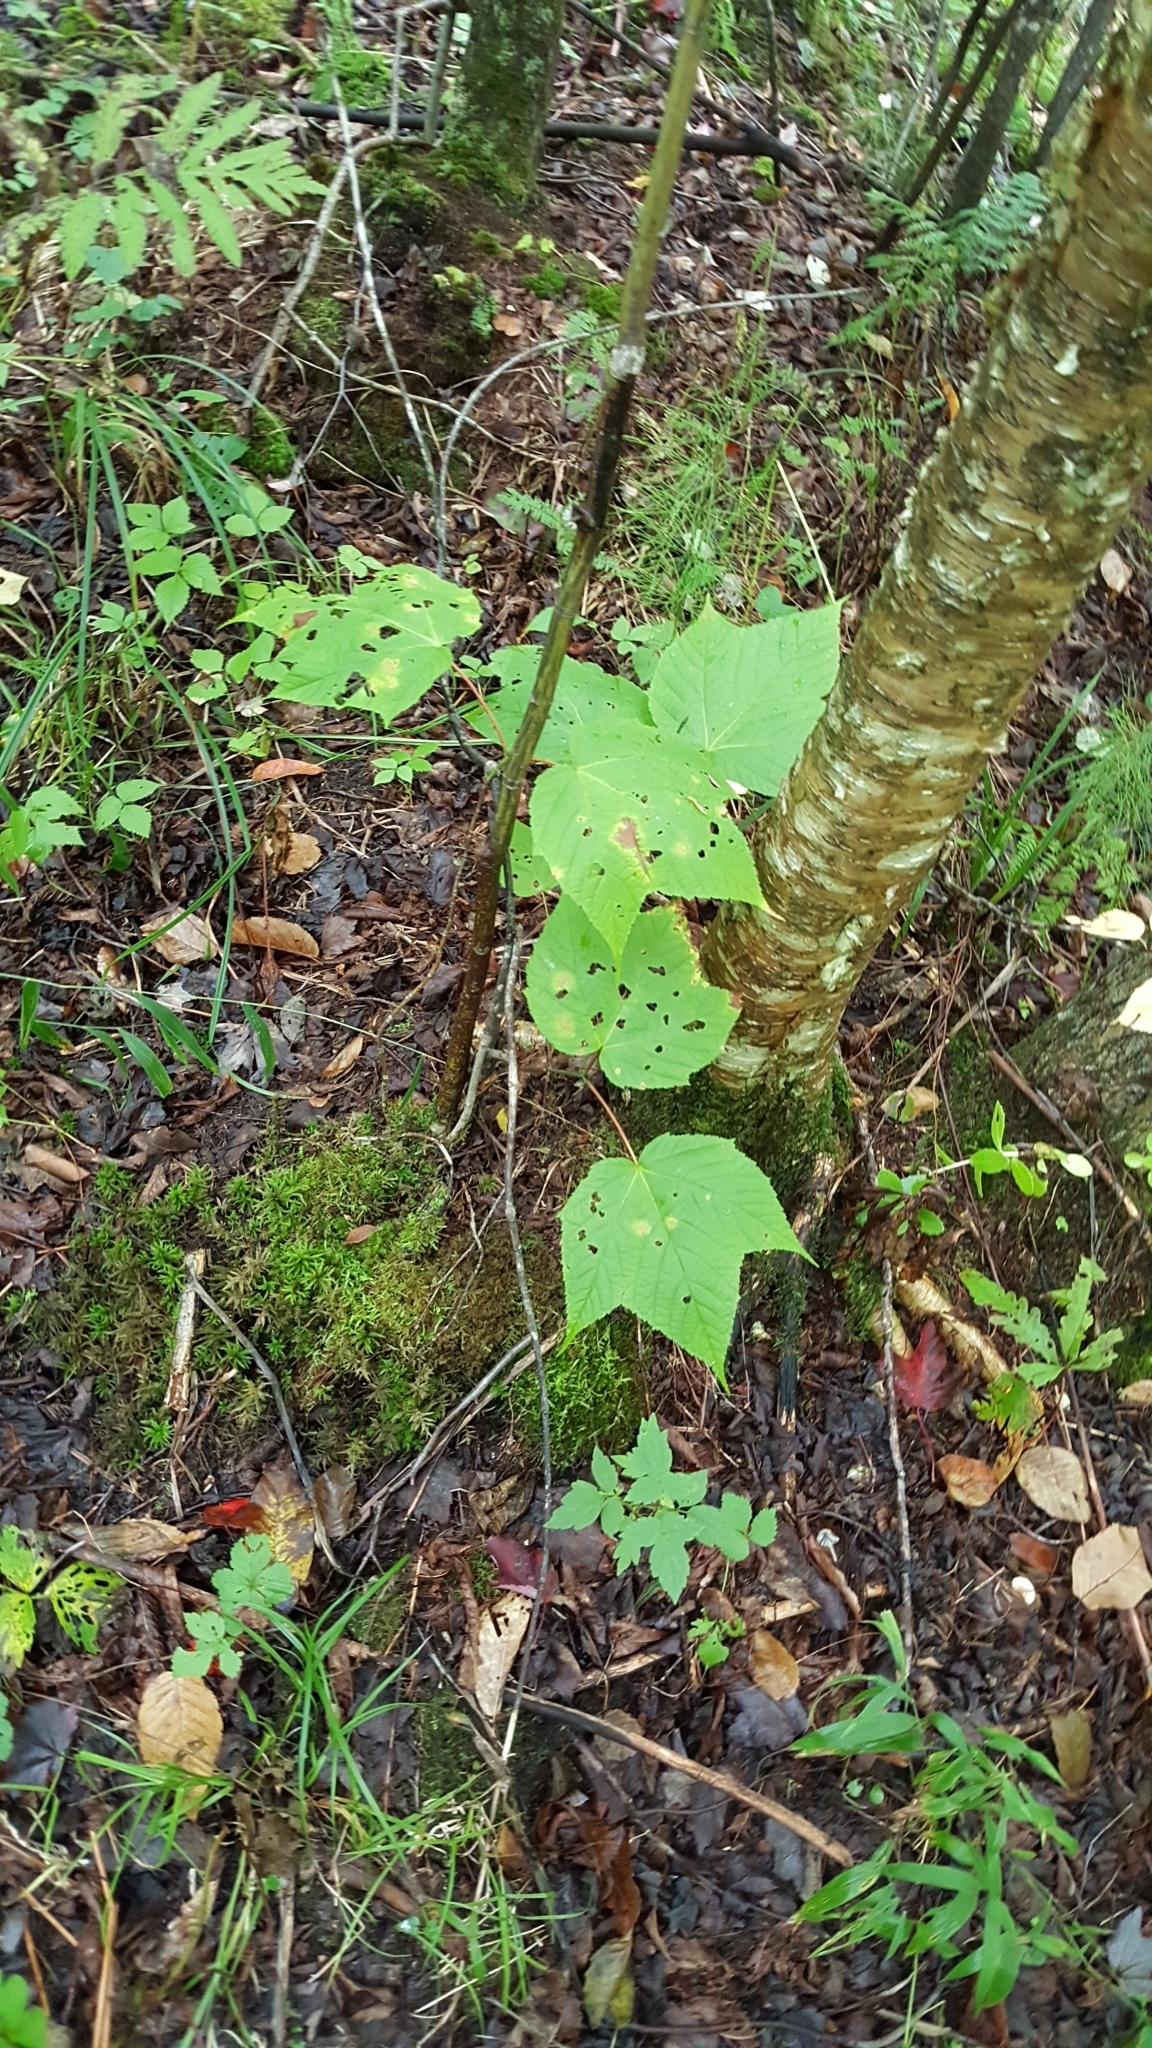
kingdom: Plantae
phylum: Tracheophyta
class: Magnoliopsida
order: Sapindales
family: Sapindaceae
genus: Acer
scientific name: Acer pensylvanicum
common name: Moosewood
